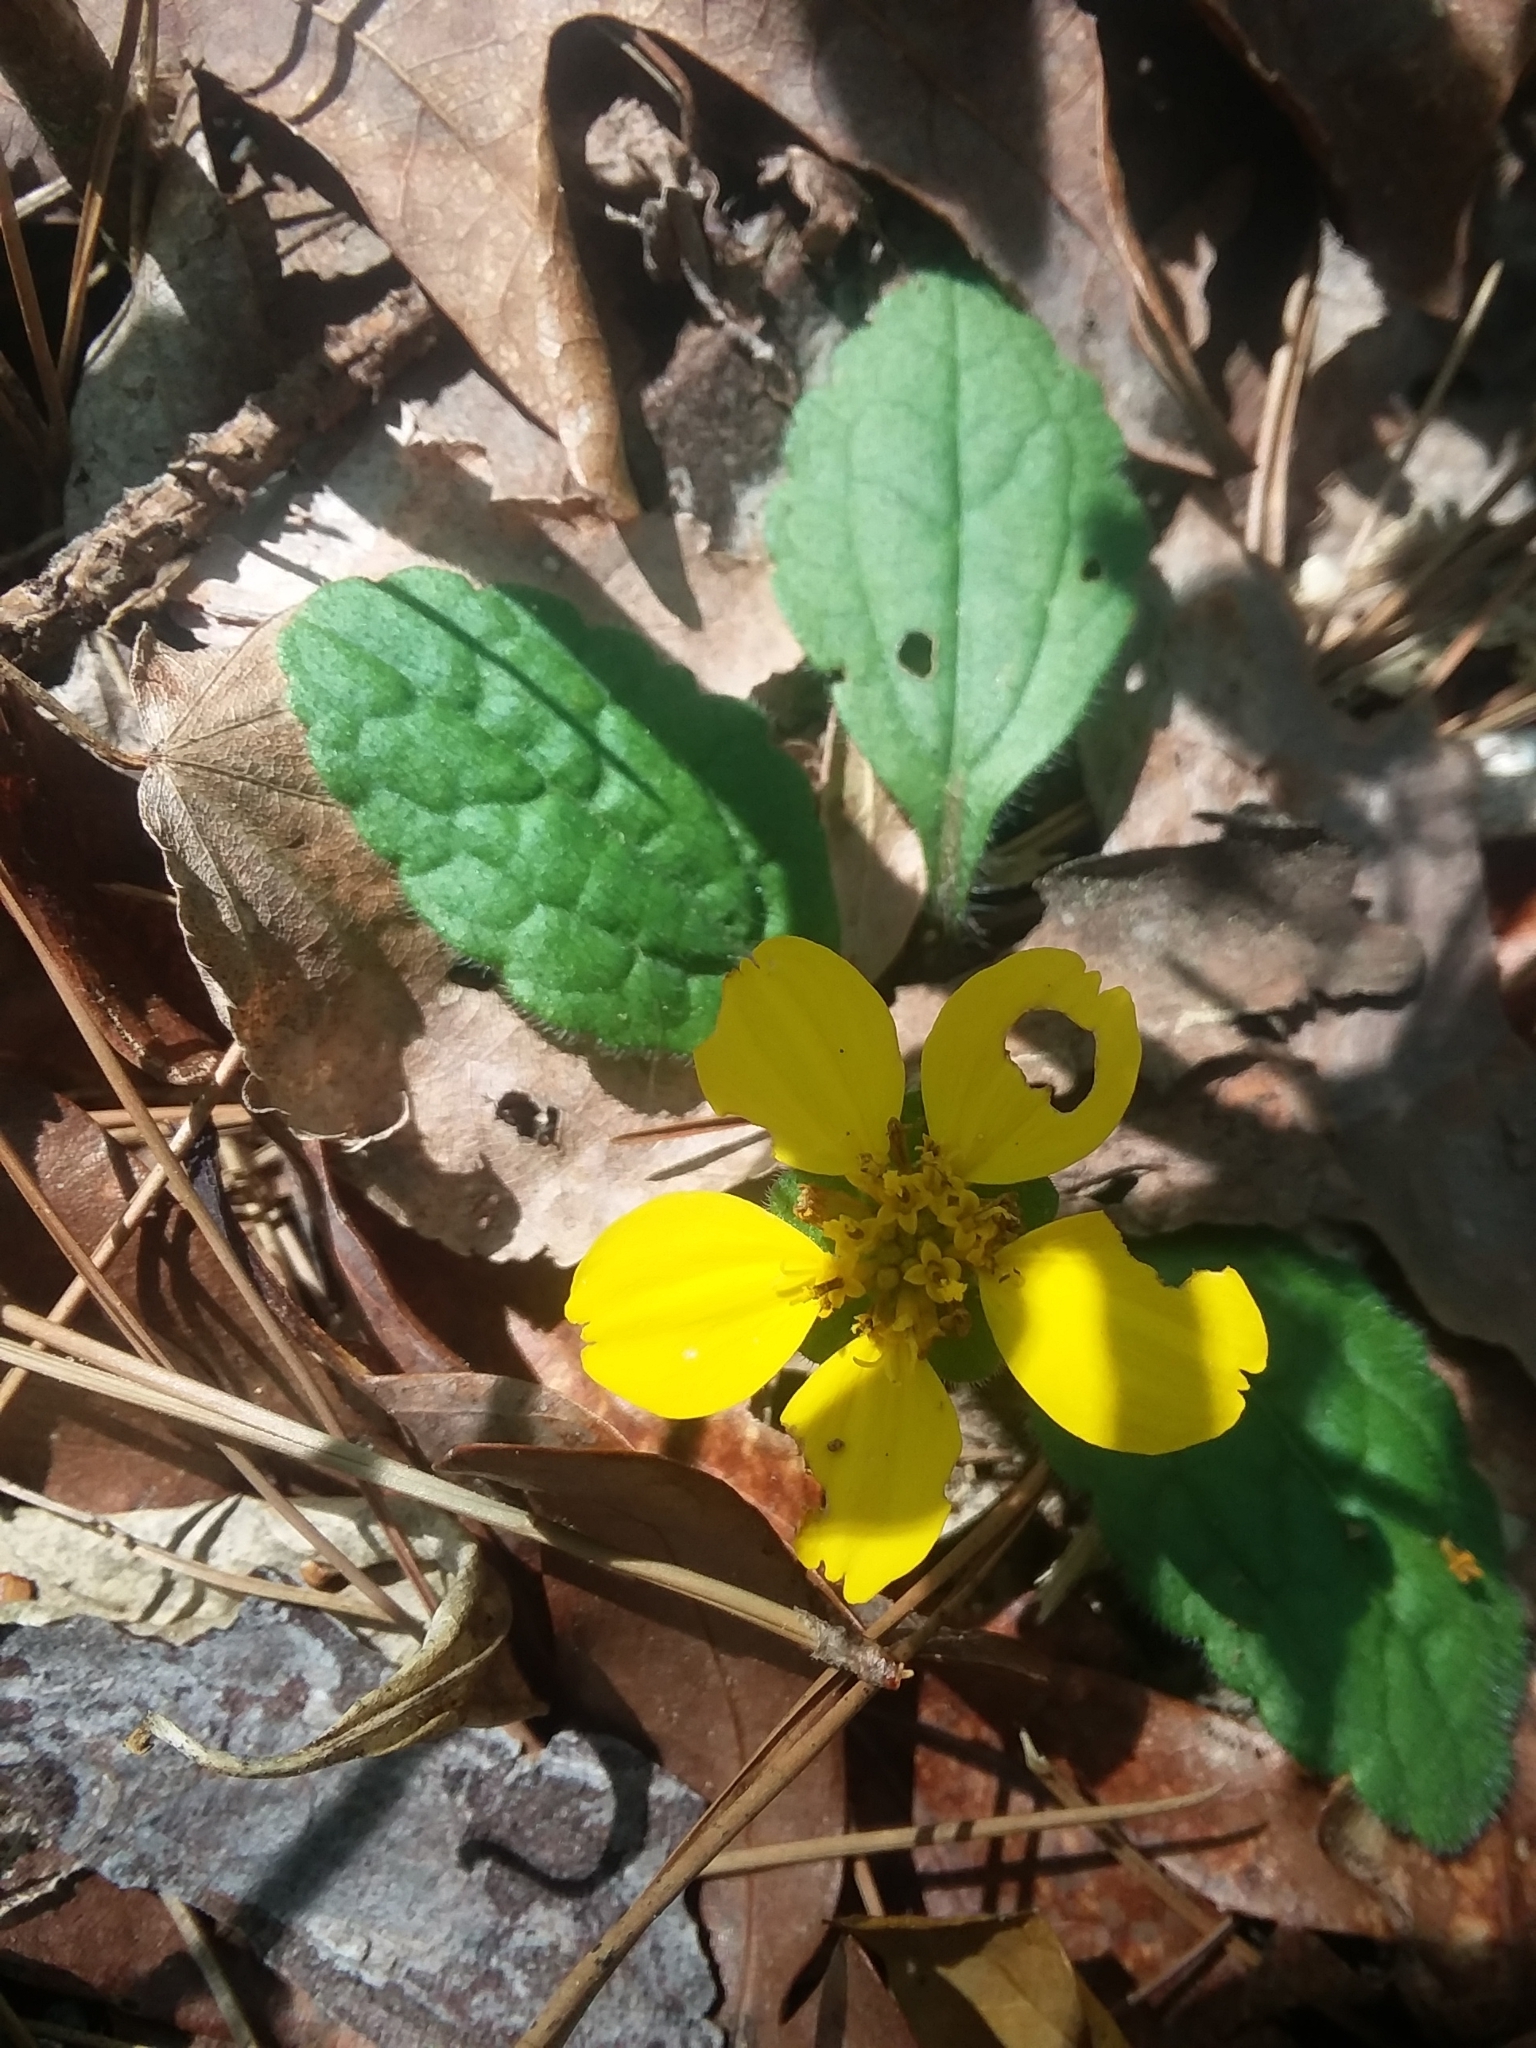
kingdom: Plantae
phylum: Tracheophyta
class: Magnoliopsida
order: Asterales
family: Asteraceae
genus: Chrysogonum
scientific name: Chrysogonum australe
